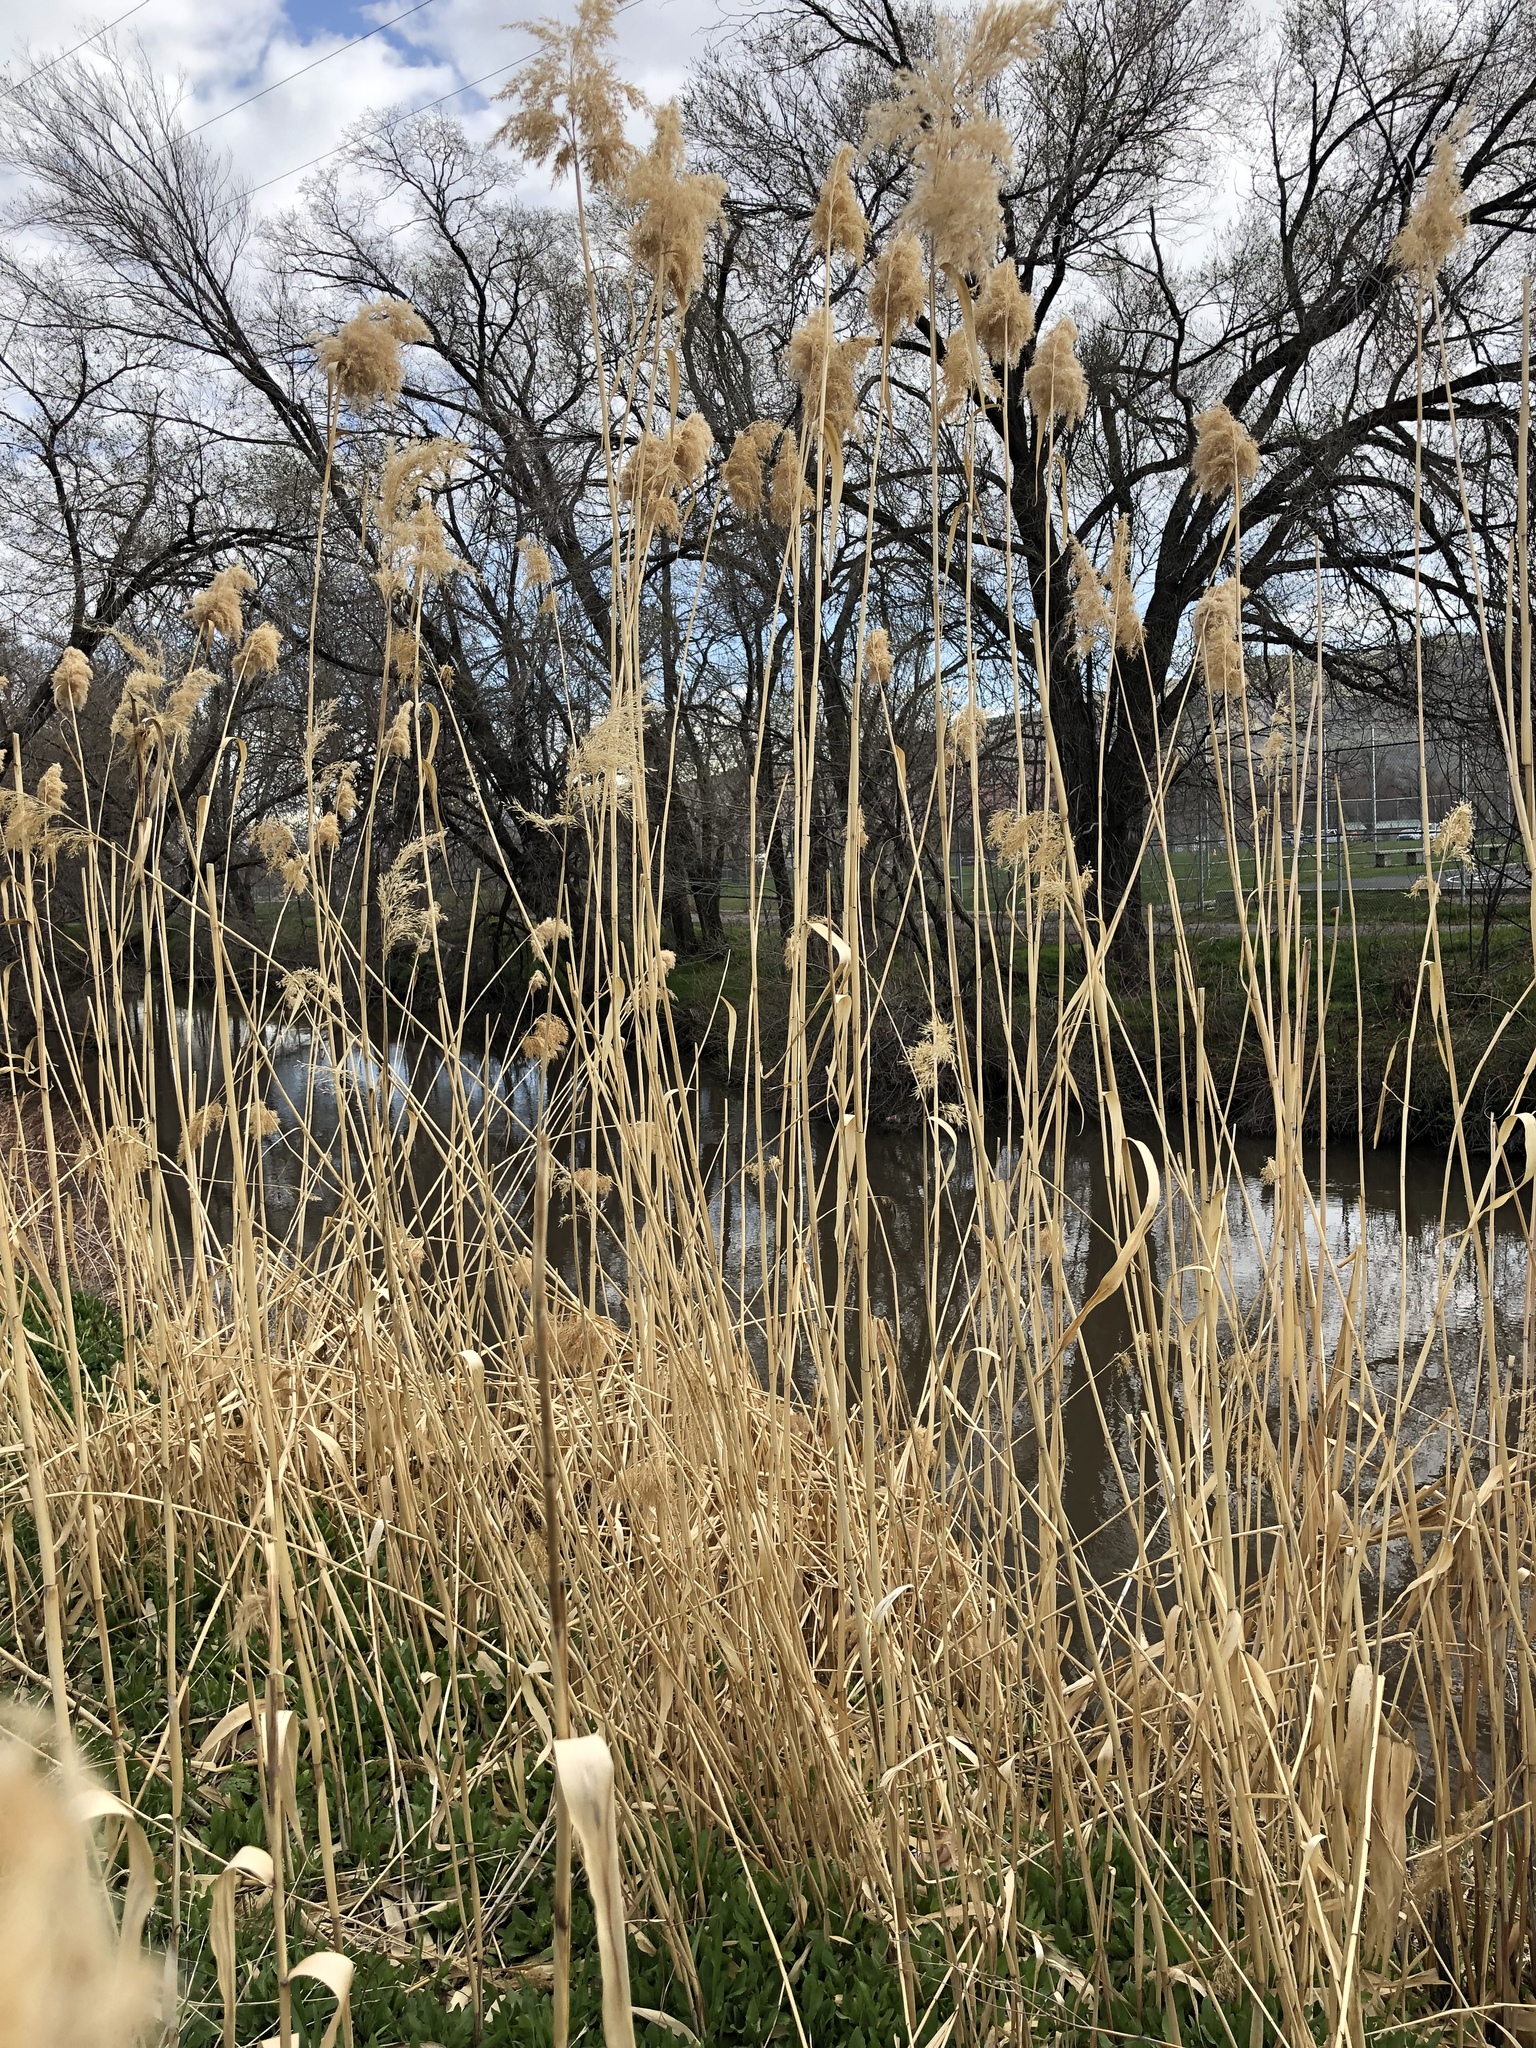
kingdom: Plantae
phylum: Tracheophyta
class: Liliopsida
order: Poales
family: Poaceae
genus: Phragmites
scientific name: Phragmites australis
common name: Common reed
